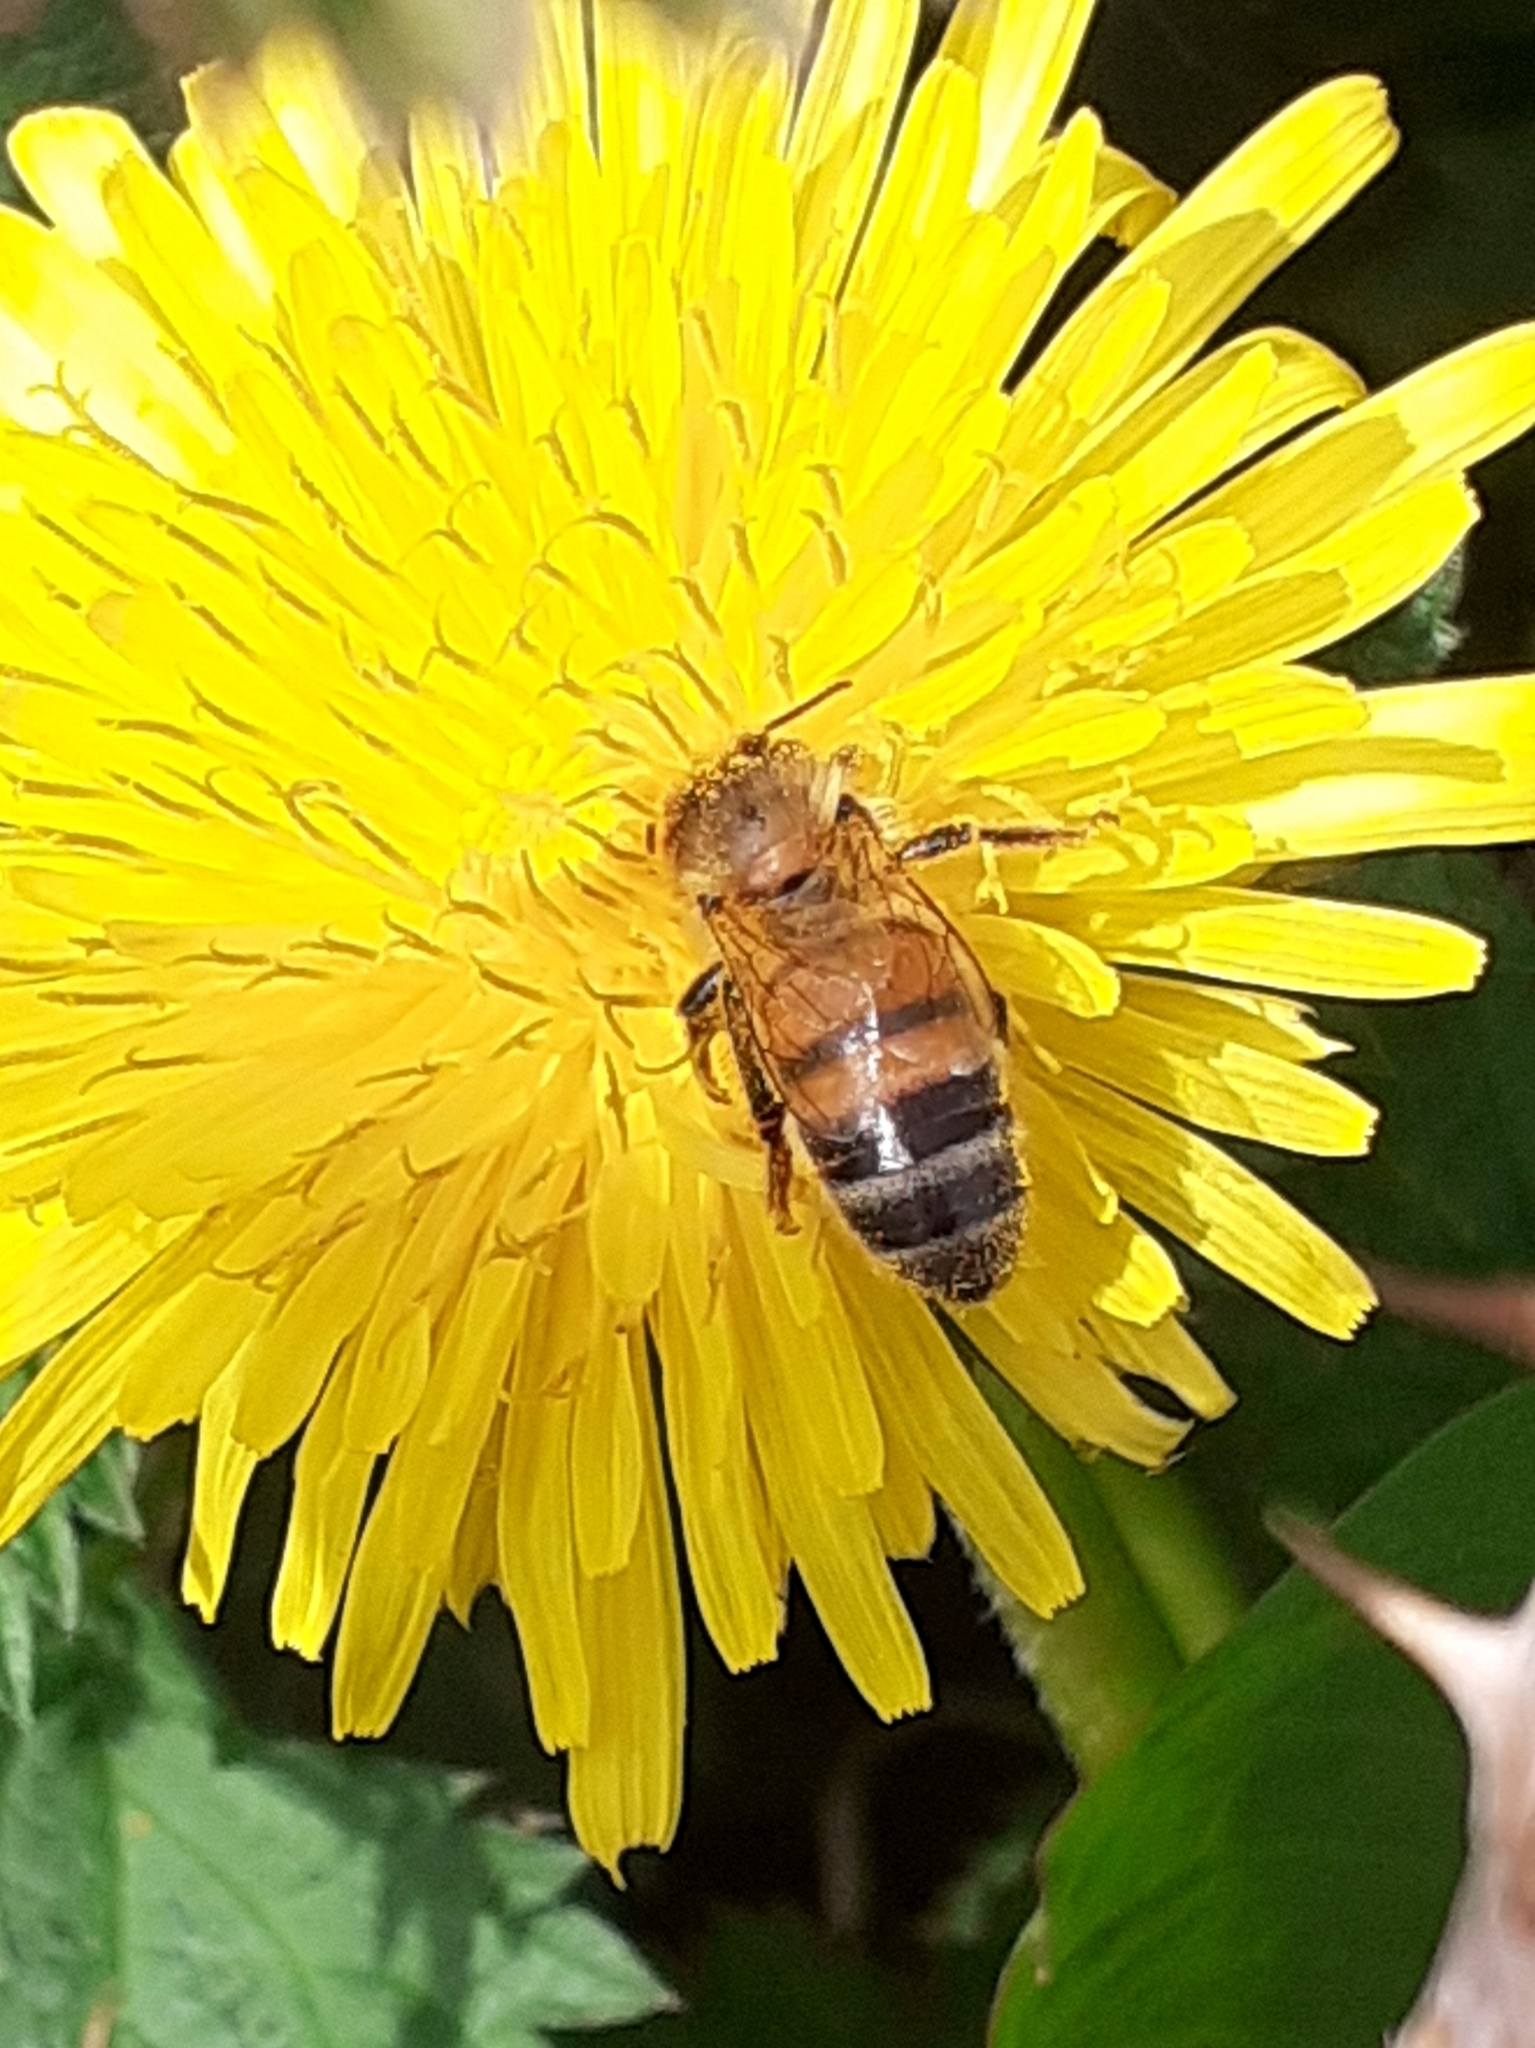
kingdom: Animalia
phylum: Arthropoda
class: Insecta
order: Hymenoptera
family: Apidae
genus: Apis
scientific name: Apis mellifera
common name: Honey bee
